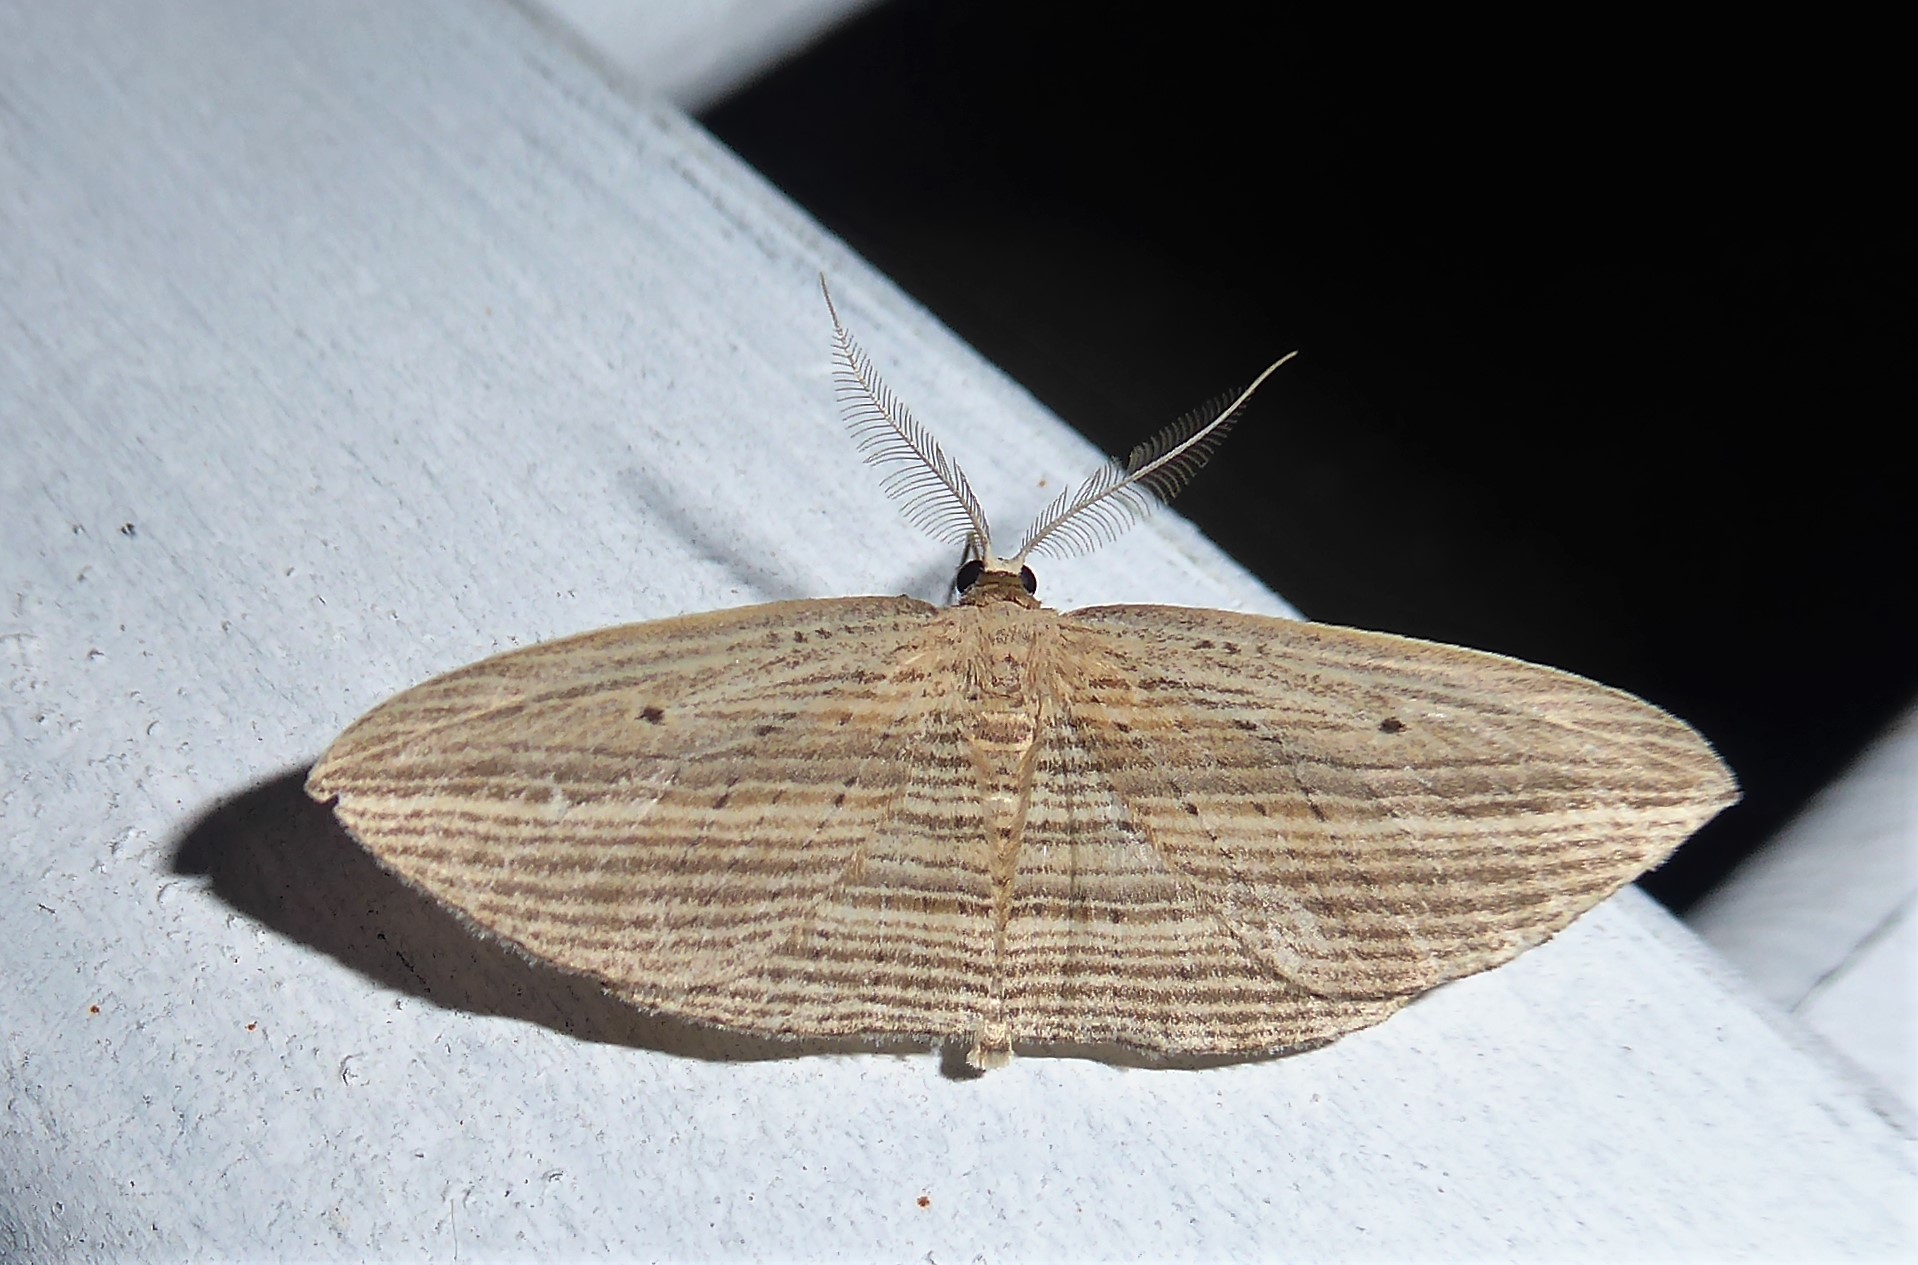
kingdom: Animalia
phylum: Arthropoda
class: Insecta
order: Lepidoptera
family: Geometridae
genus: Epiphryne
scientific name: Epiphryne verriculata
